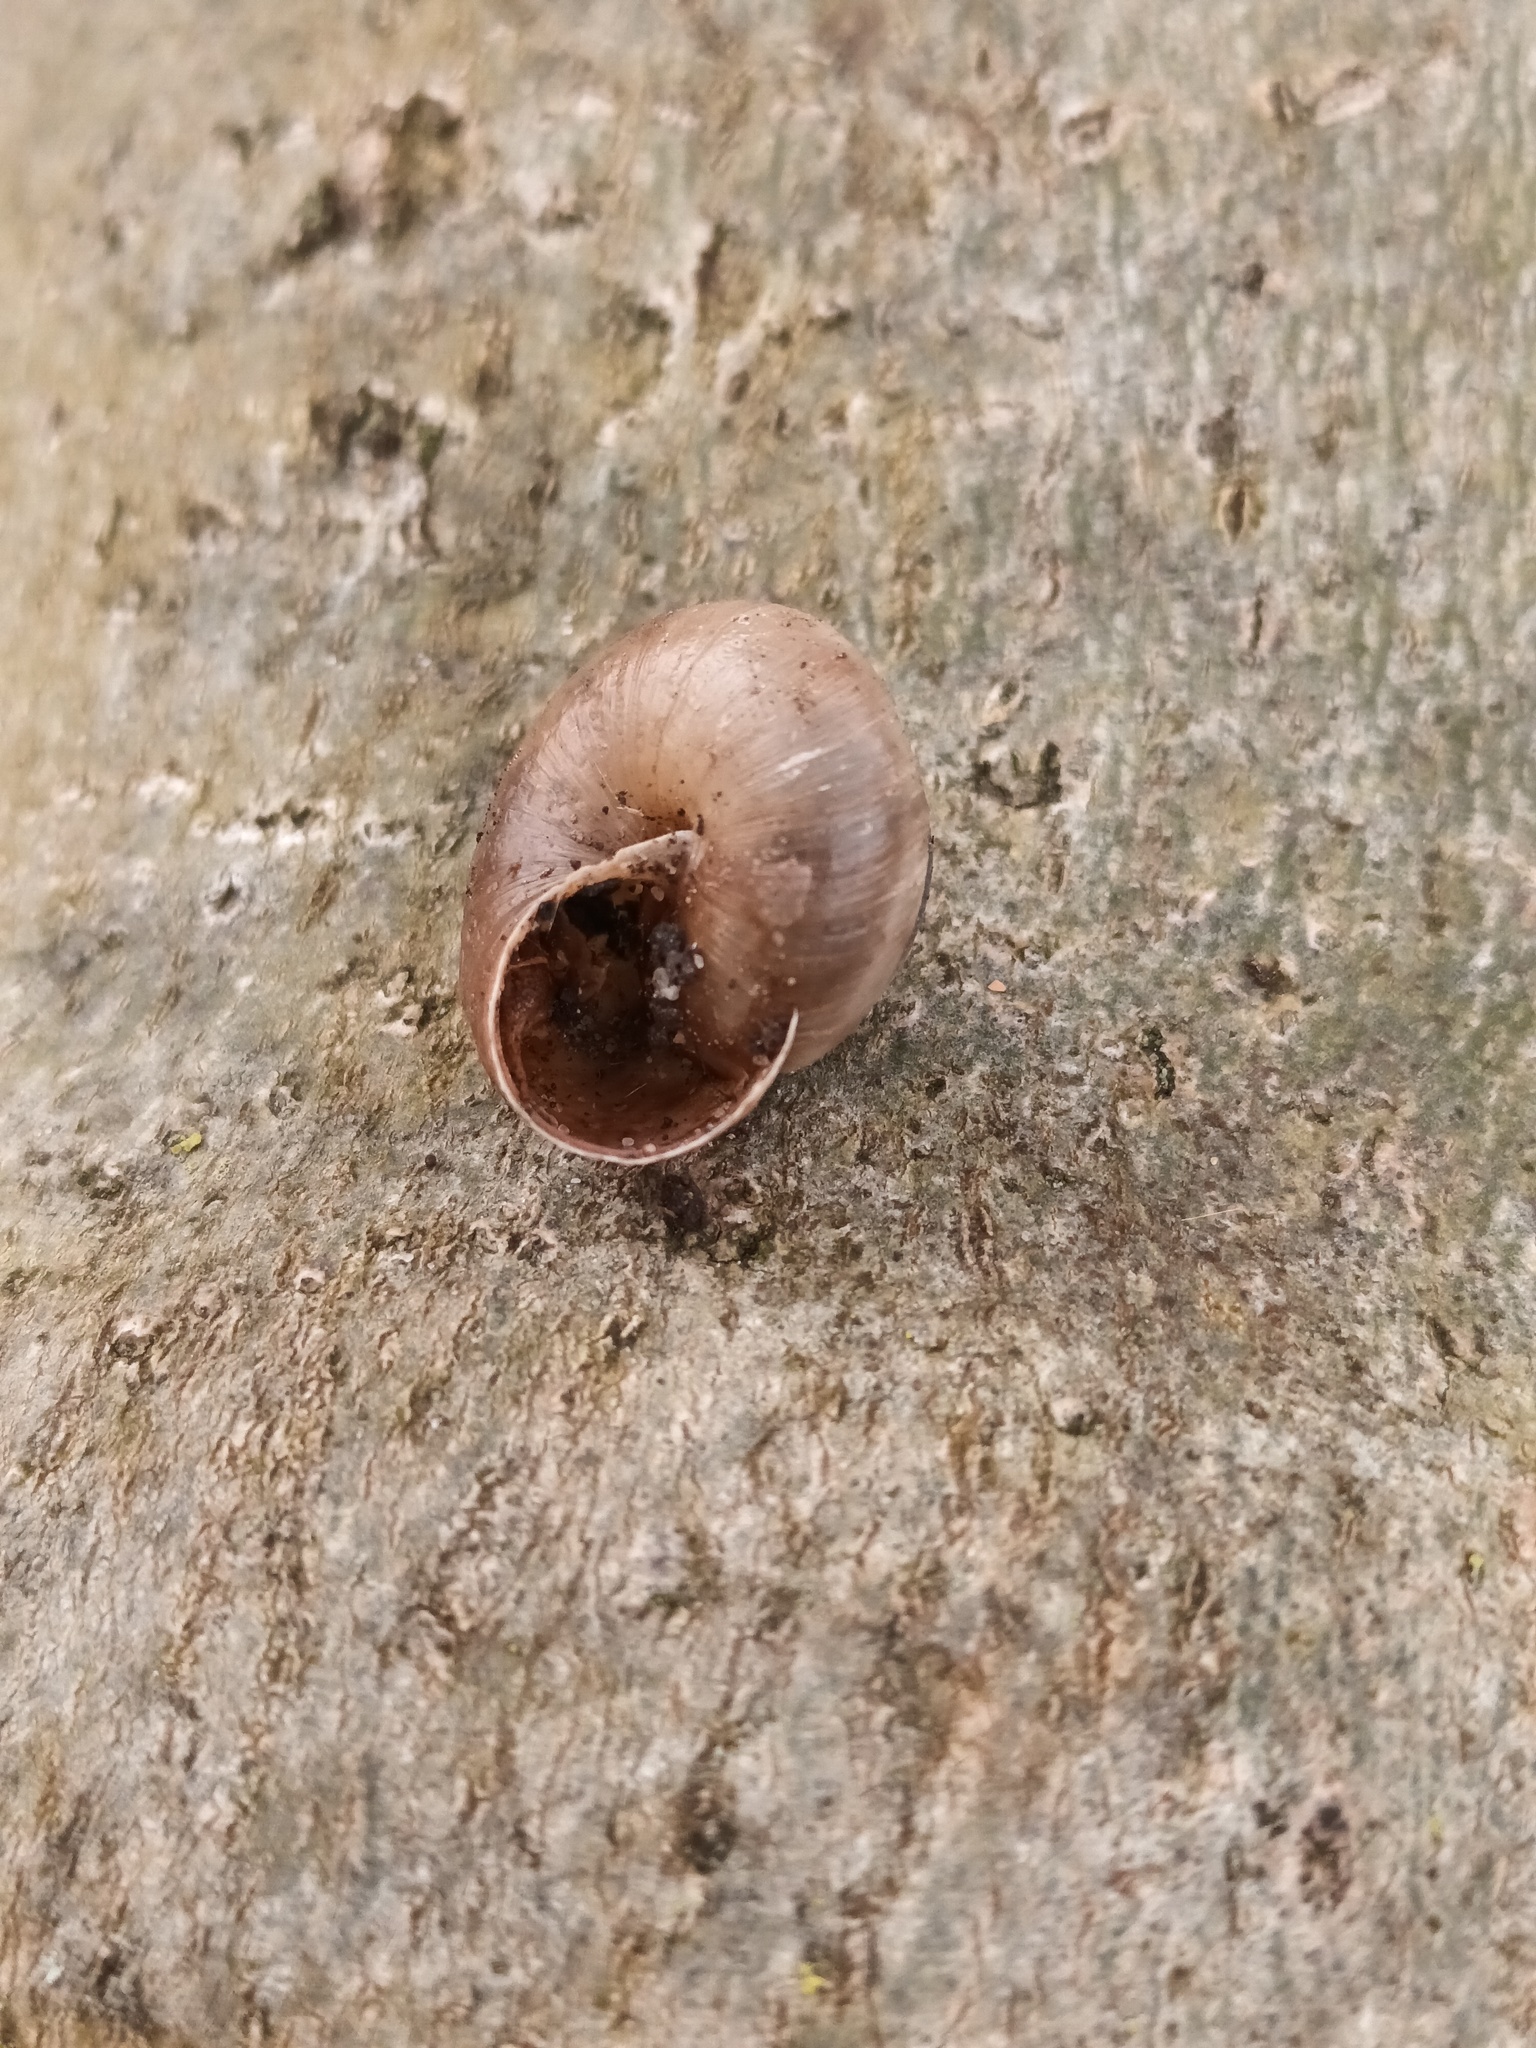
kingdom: Animalia
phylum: Mollusca
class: Gastropoda
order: Stylommatophora
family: Hygromiidae
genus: Monacha
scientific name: Monacha cantiana
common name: Kentish snail
